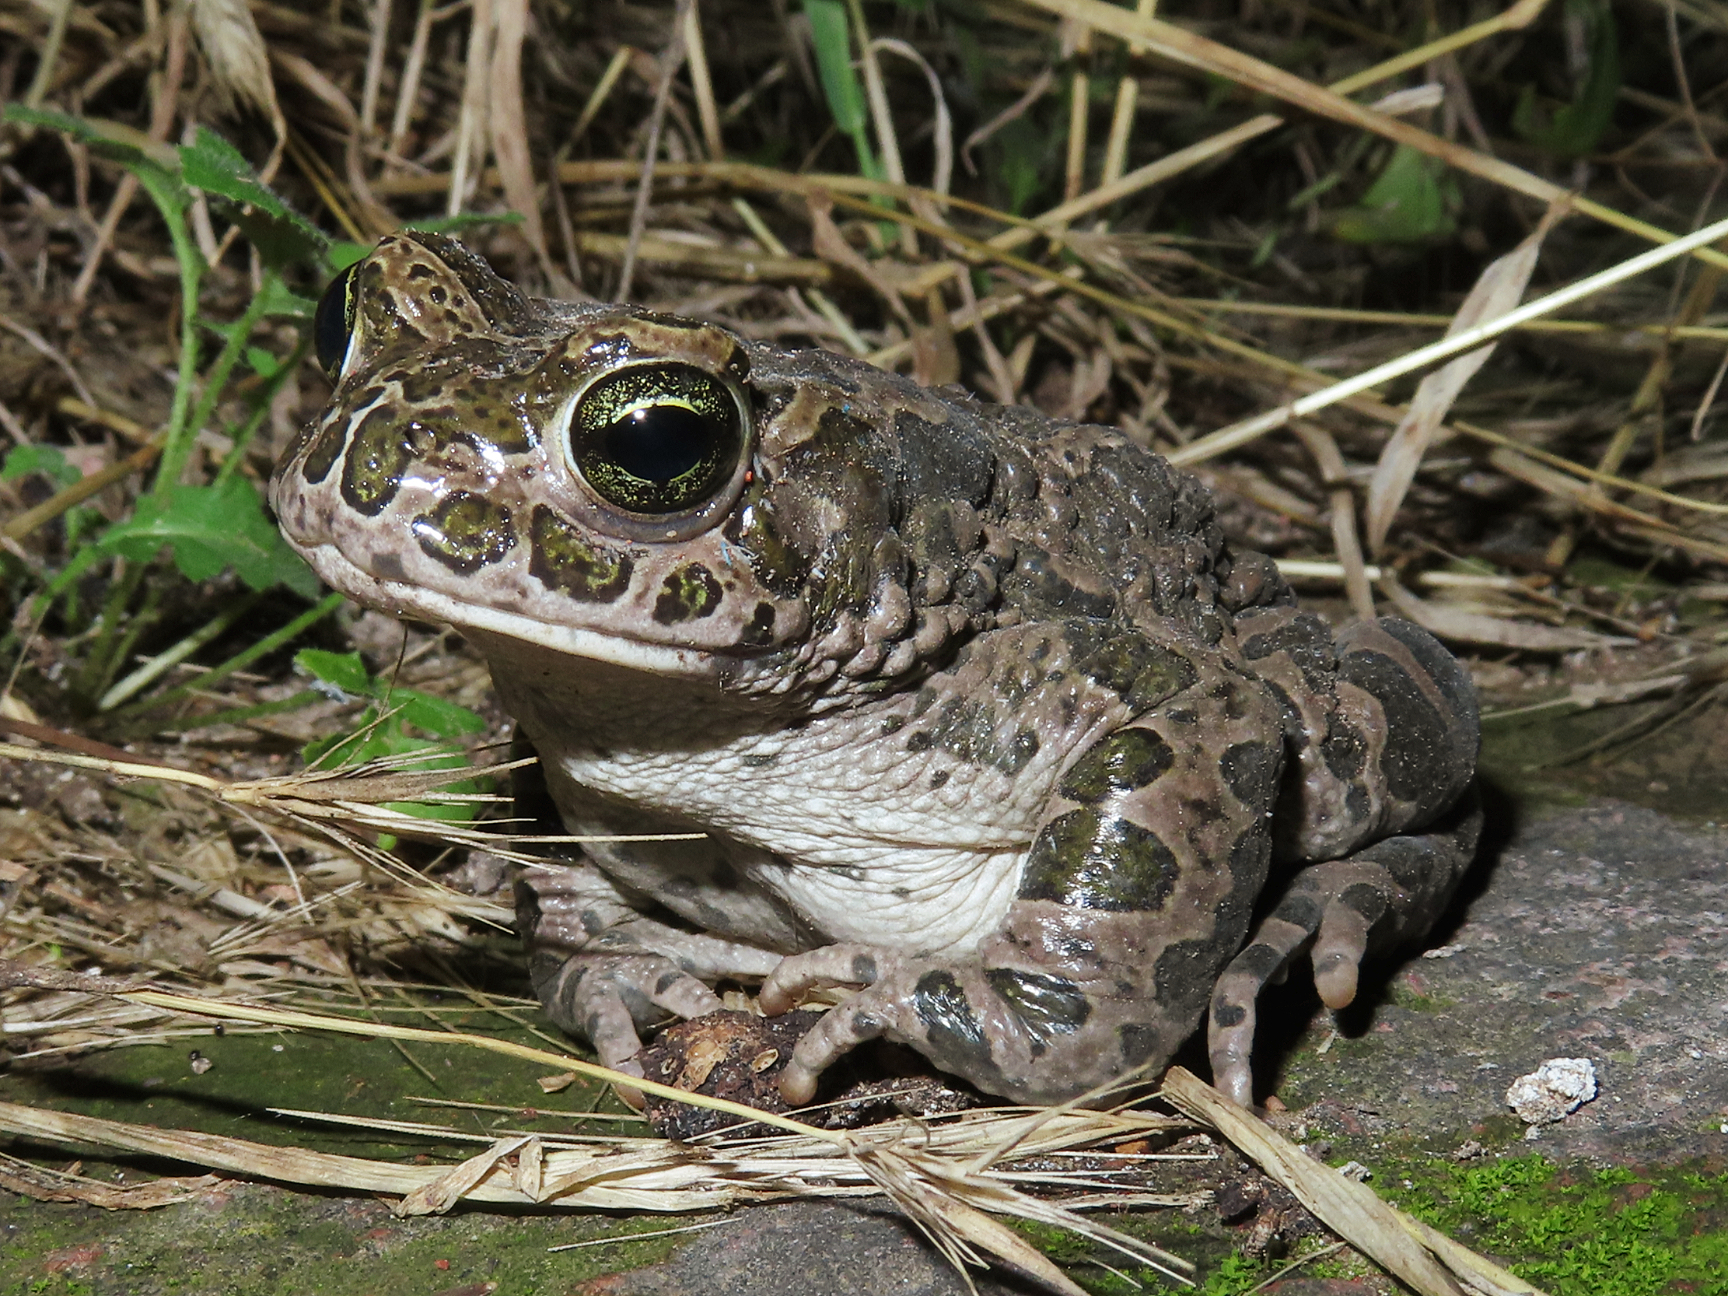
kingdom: Animalia
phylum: Chordata
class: Amphibia
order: Anura
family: Bufonidae
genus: Bufotes
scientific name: Bufotes viridis
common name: European green toad
